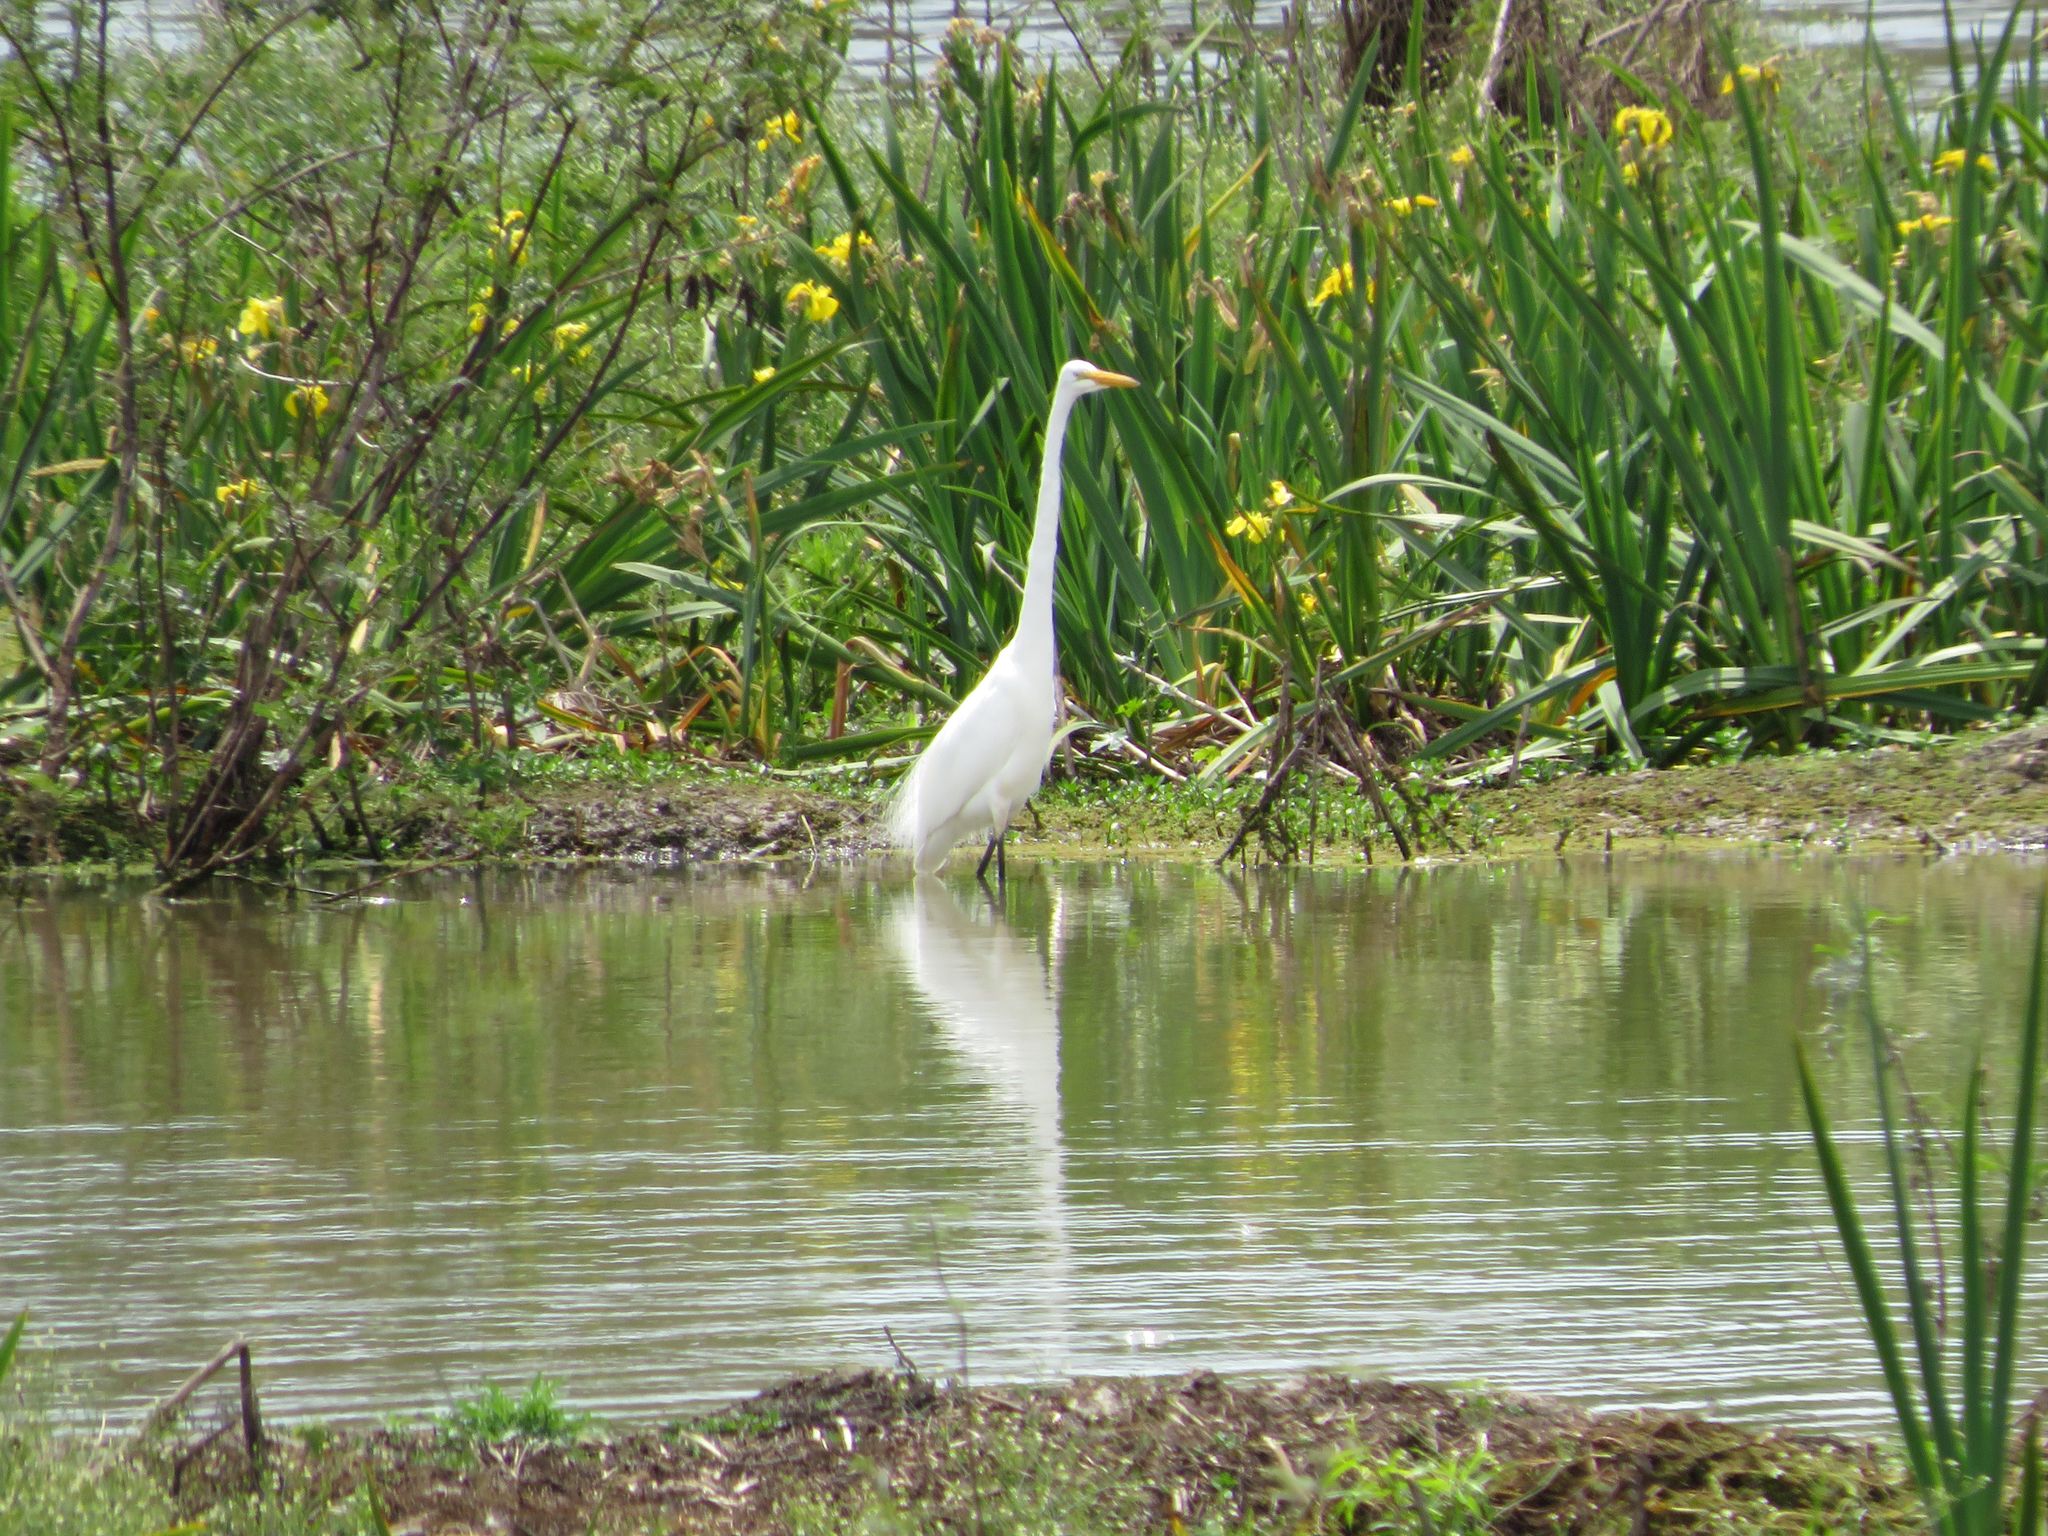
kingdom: Animalia
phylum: Chordata
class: Aves
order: Pelecaniformes
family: Ardeidae
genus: Ardea
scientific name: Ardea alba
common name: Great egret
